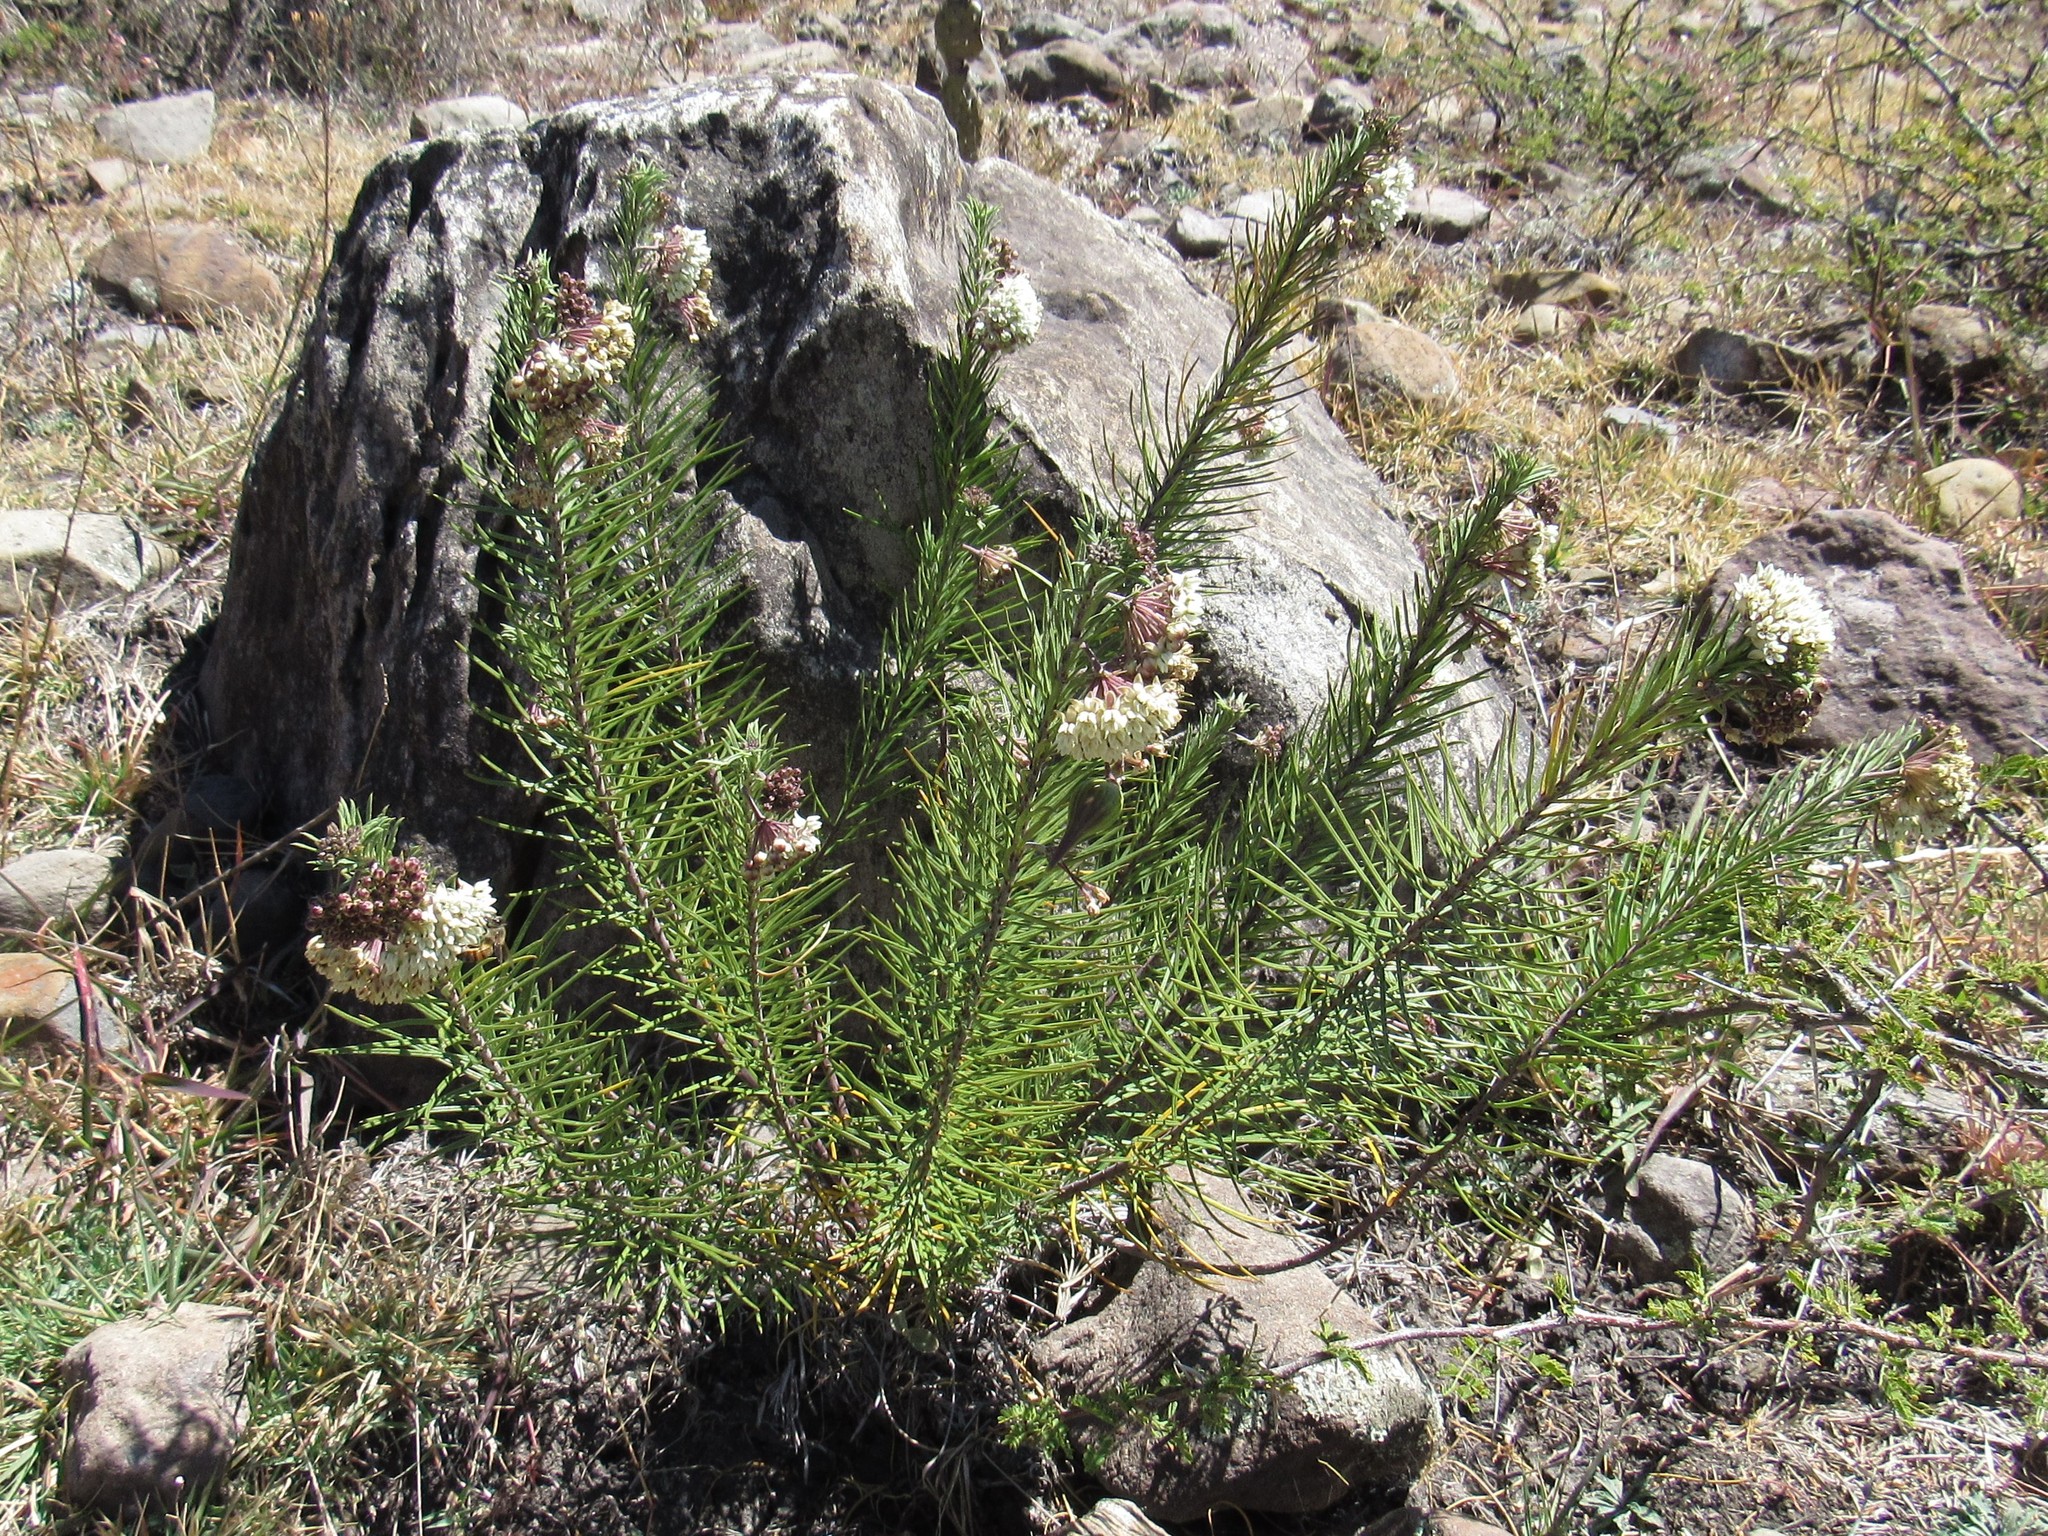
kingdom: Plantae
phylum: Tracheophyta
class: Magnoliopsida
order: Gentianales
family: Apocynaceae
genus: Asclepias
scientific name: Asclepias linaria
